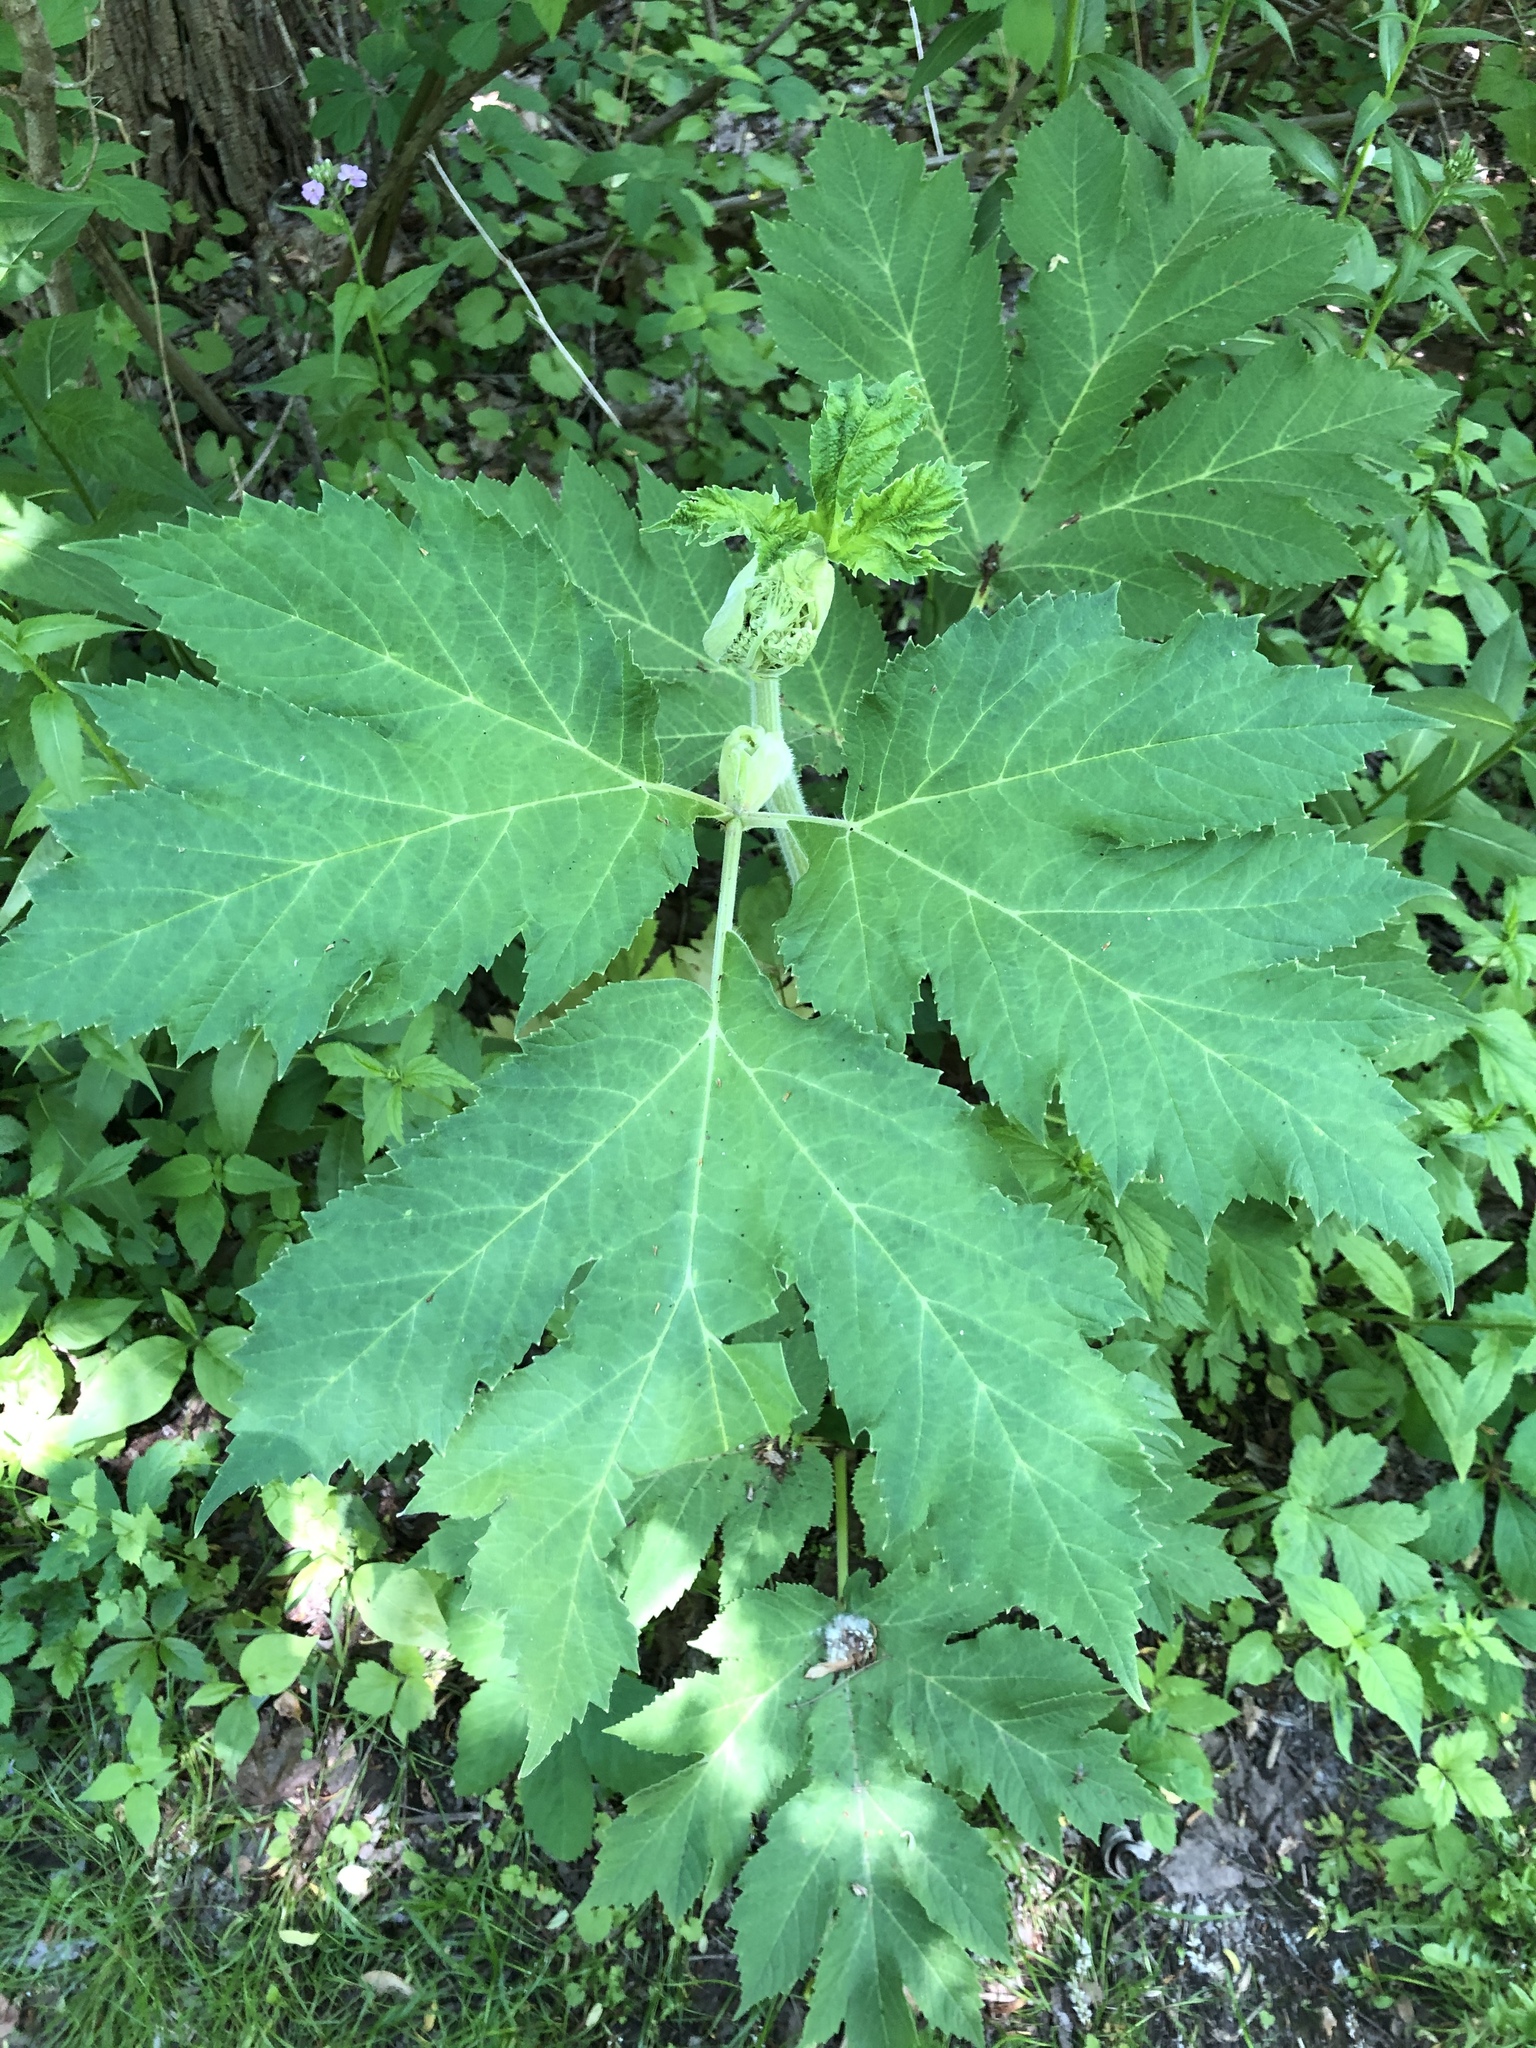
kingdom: Plantae
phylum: Tracheophyta
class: Magnoliopsida
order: Apiales
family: Apiaceae
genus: Heracleum
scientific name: Heracleum maximum
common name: American cow parsnip
